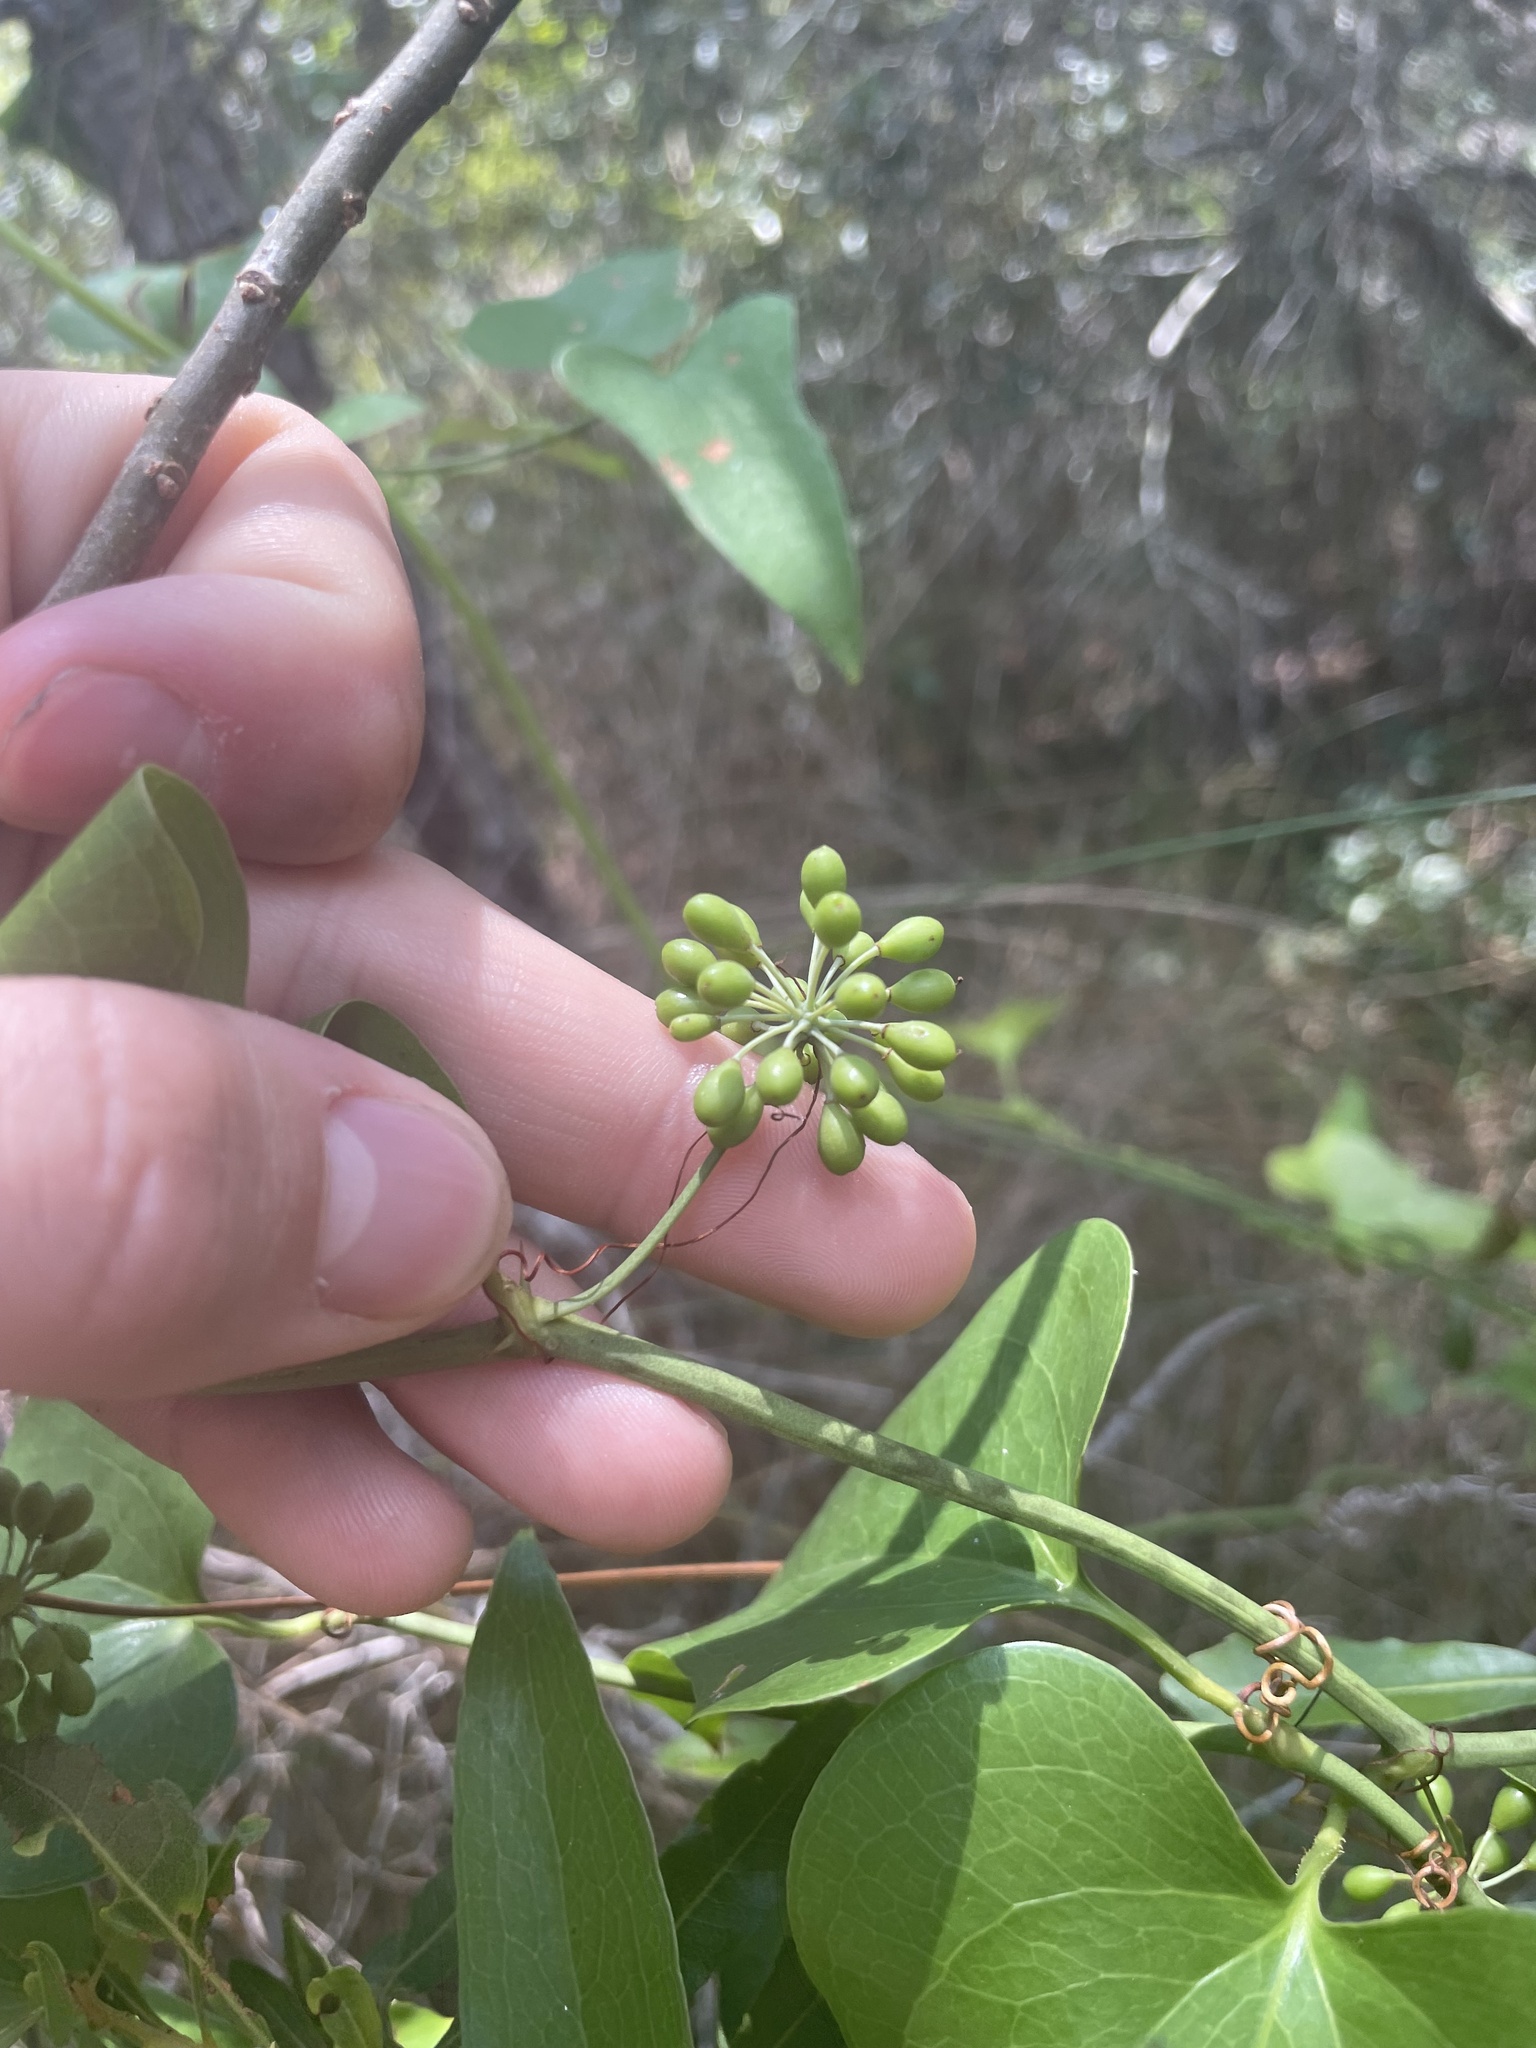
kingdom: Plantae
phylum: Tracheophyta
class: Liliopsida
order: Liliales
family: Smilacaceae
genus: Smilax
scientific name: Smilax bona-nox
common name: Catbrier
